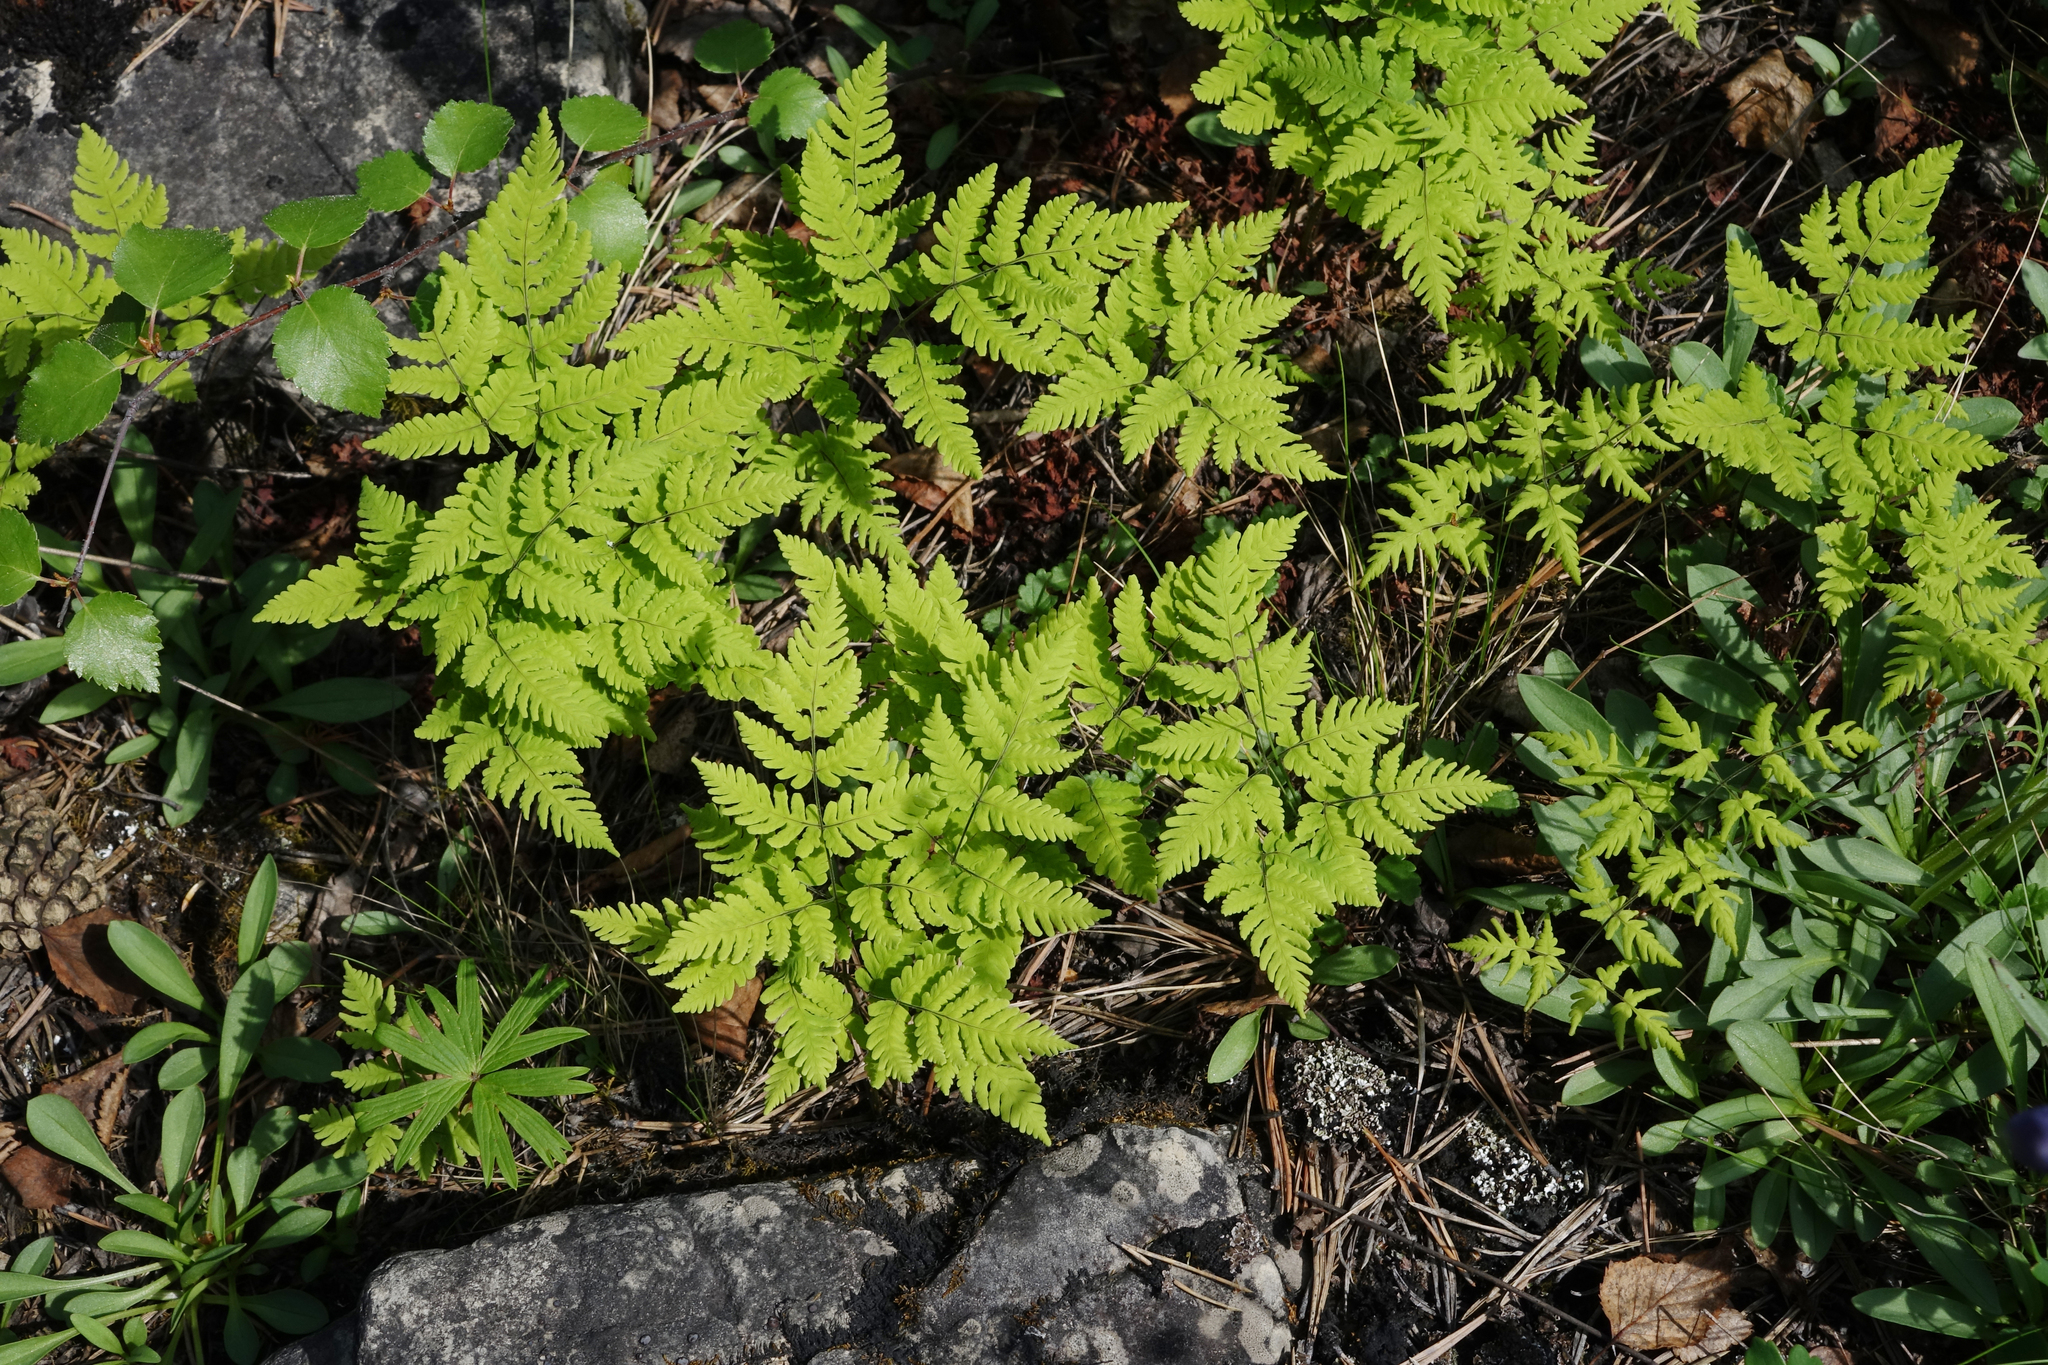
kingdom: Plantae
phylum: Tracheophyta
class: Polypodiopsida
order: Polypodiales
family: Cystopteridaceae
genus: Gymnocarpium
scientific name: Gymnocarpium continentale
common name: Asian oak fern
